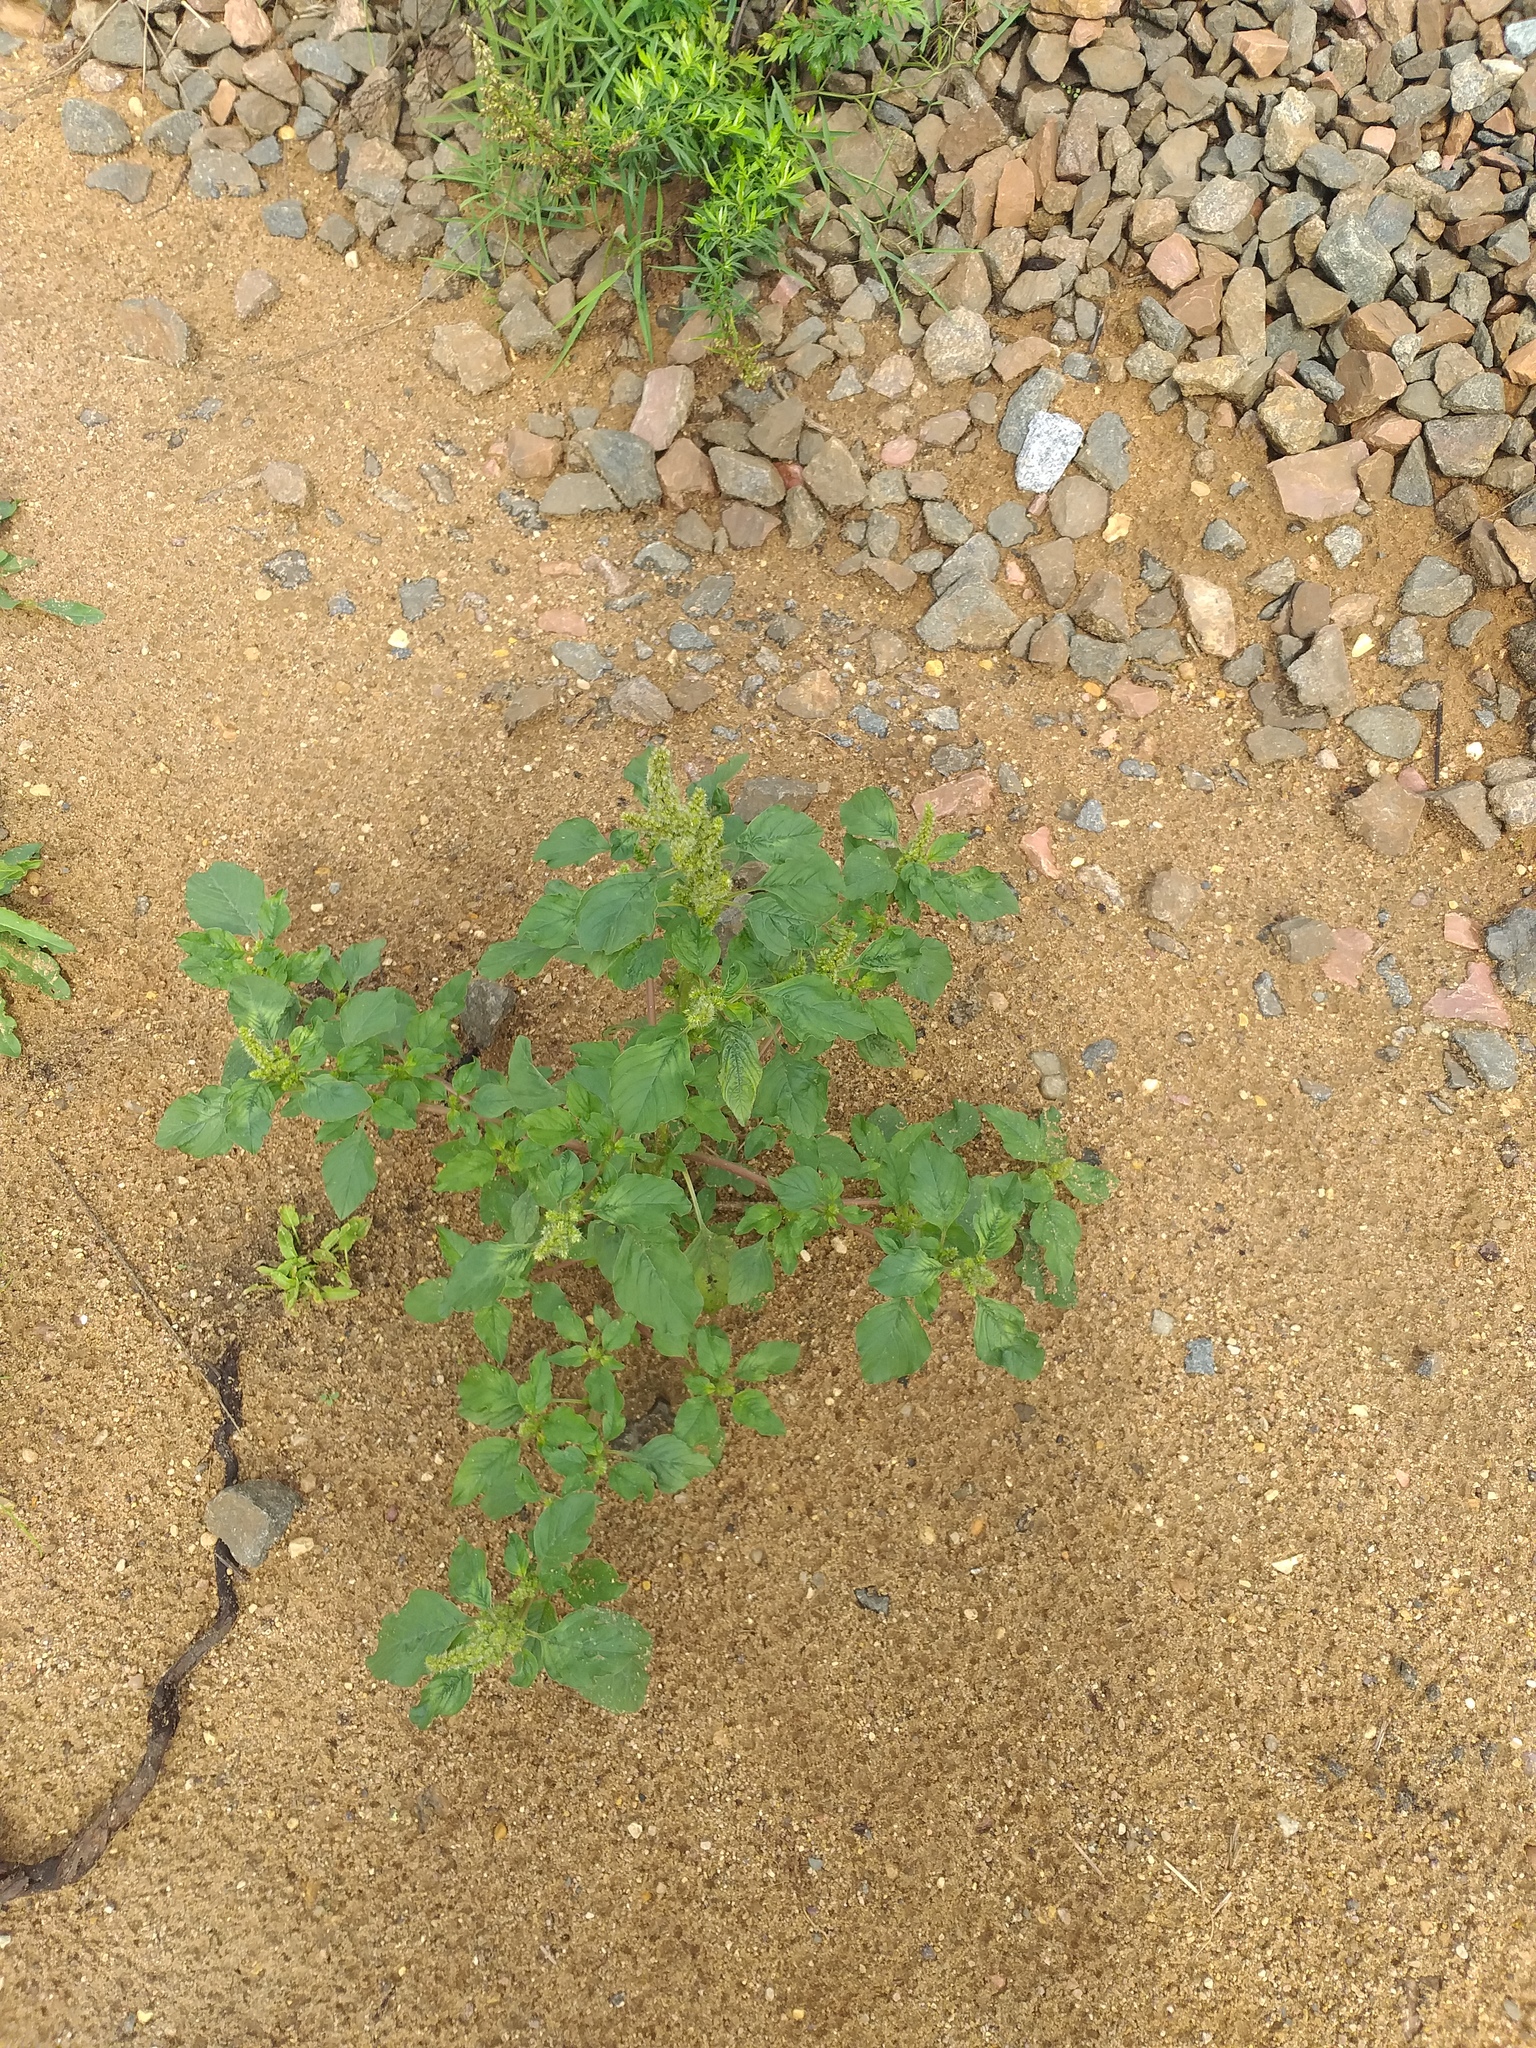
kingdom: Plantae
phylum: Tracheophyta
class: Magnoliopsida
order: Caryophyllales
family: Amaranthaceae
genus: Amaranthus
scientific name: Amaranthus retroflexus
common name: Redroot amaranth
